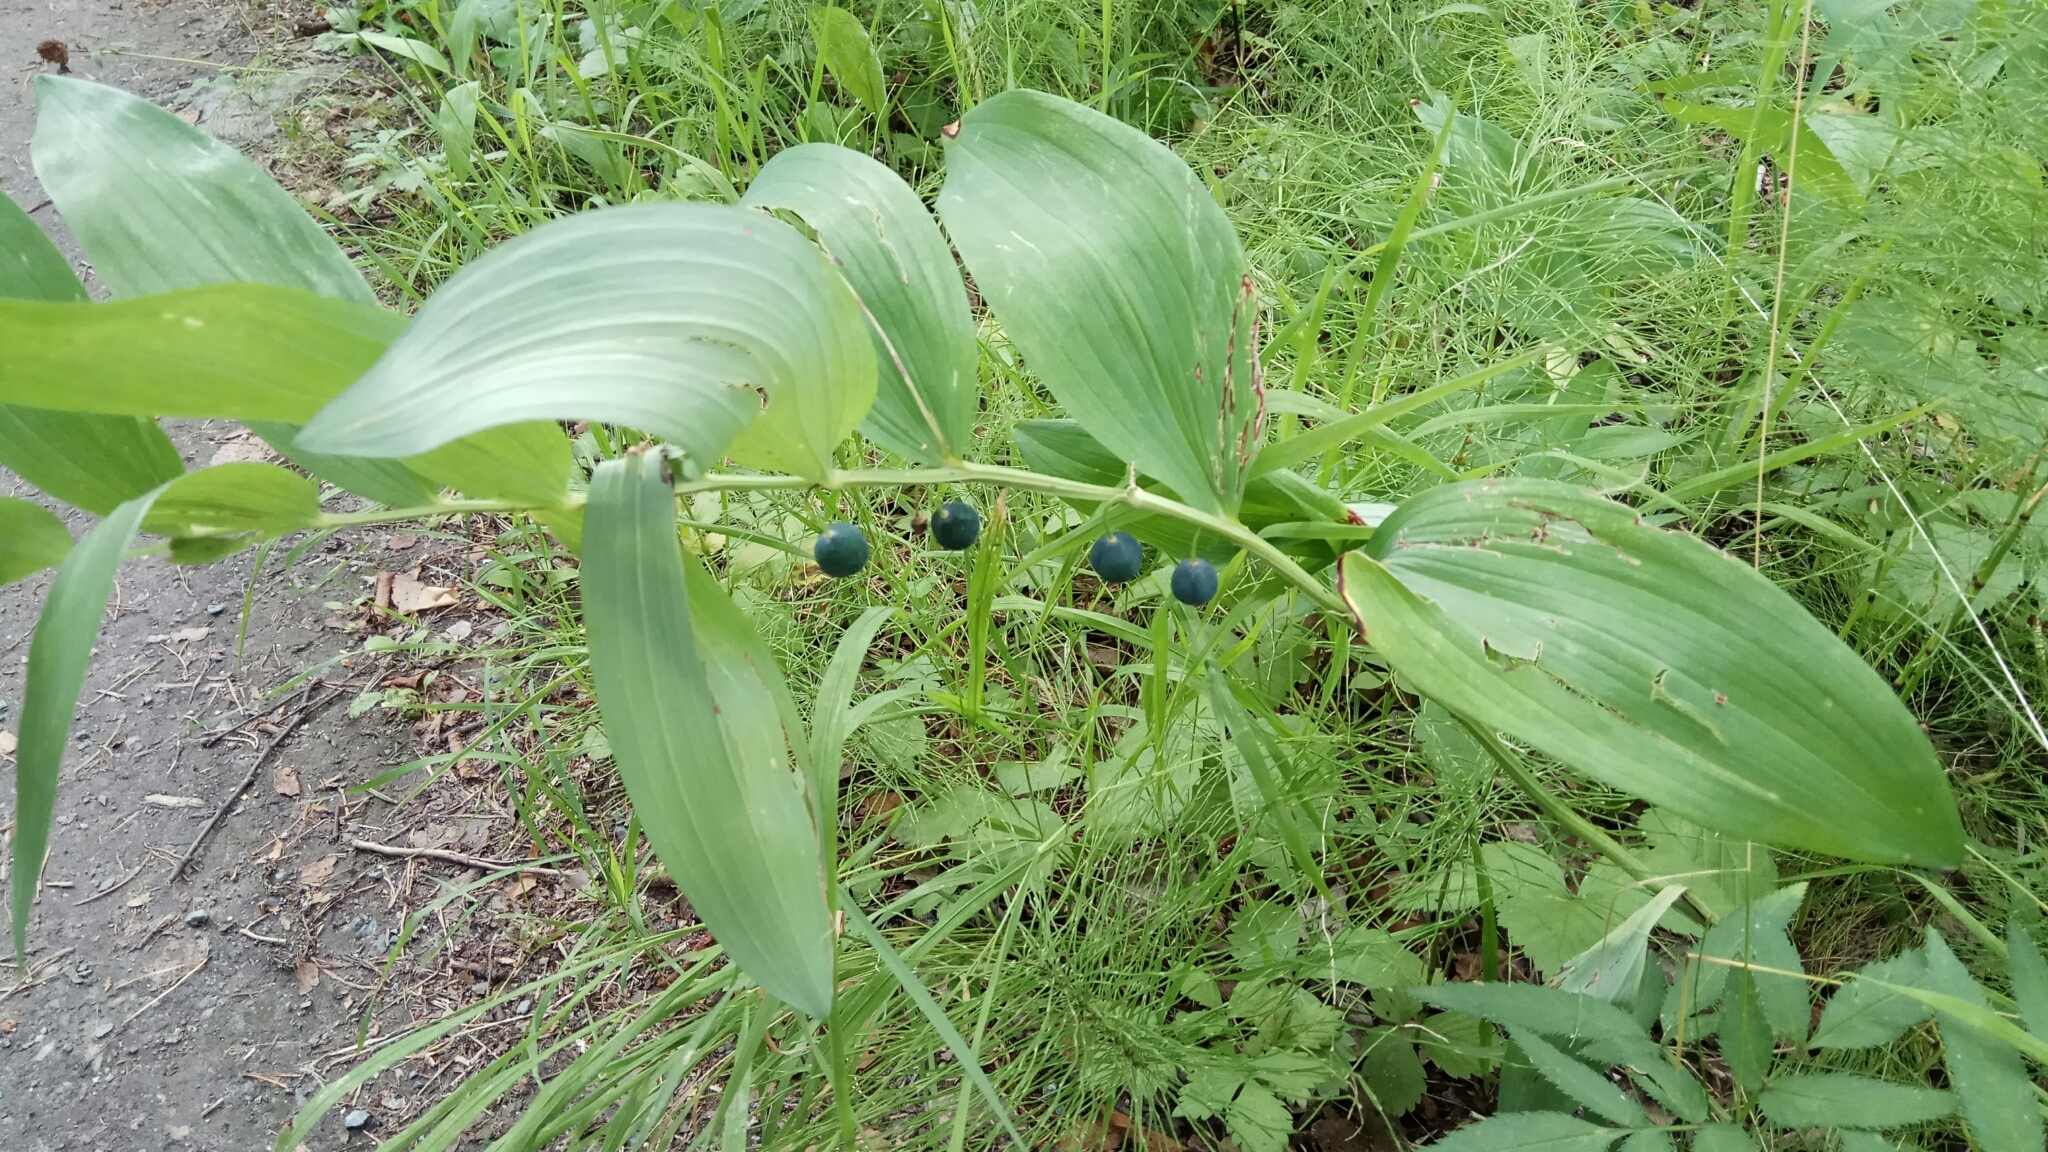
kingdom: Plantae
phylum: Tracheophyta
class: Liliopsida
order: Asparagales
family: Asparagaceae
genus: Polygonatum
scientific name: Polygonatum odoratum
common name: Angular solomon's-seal
